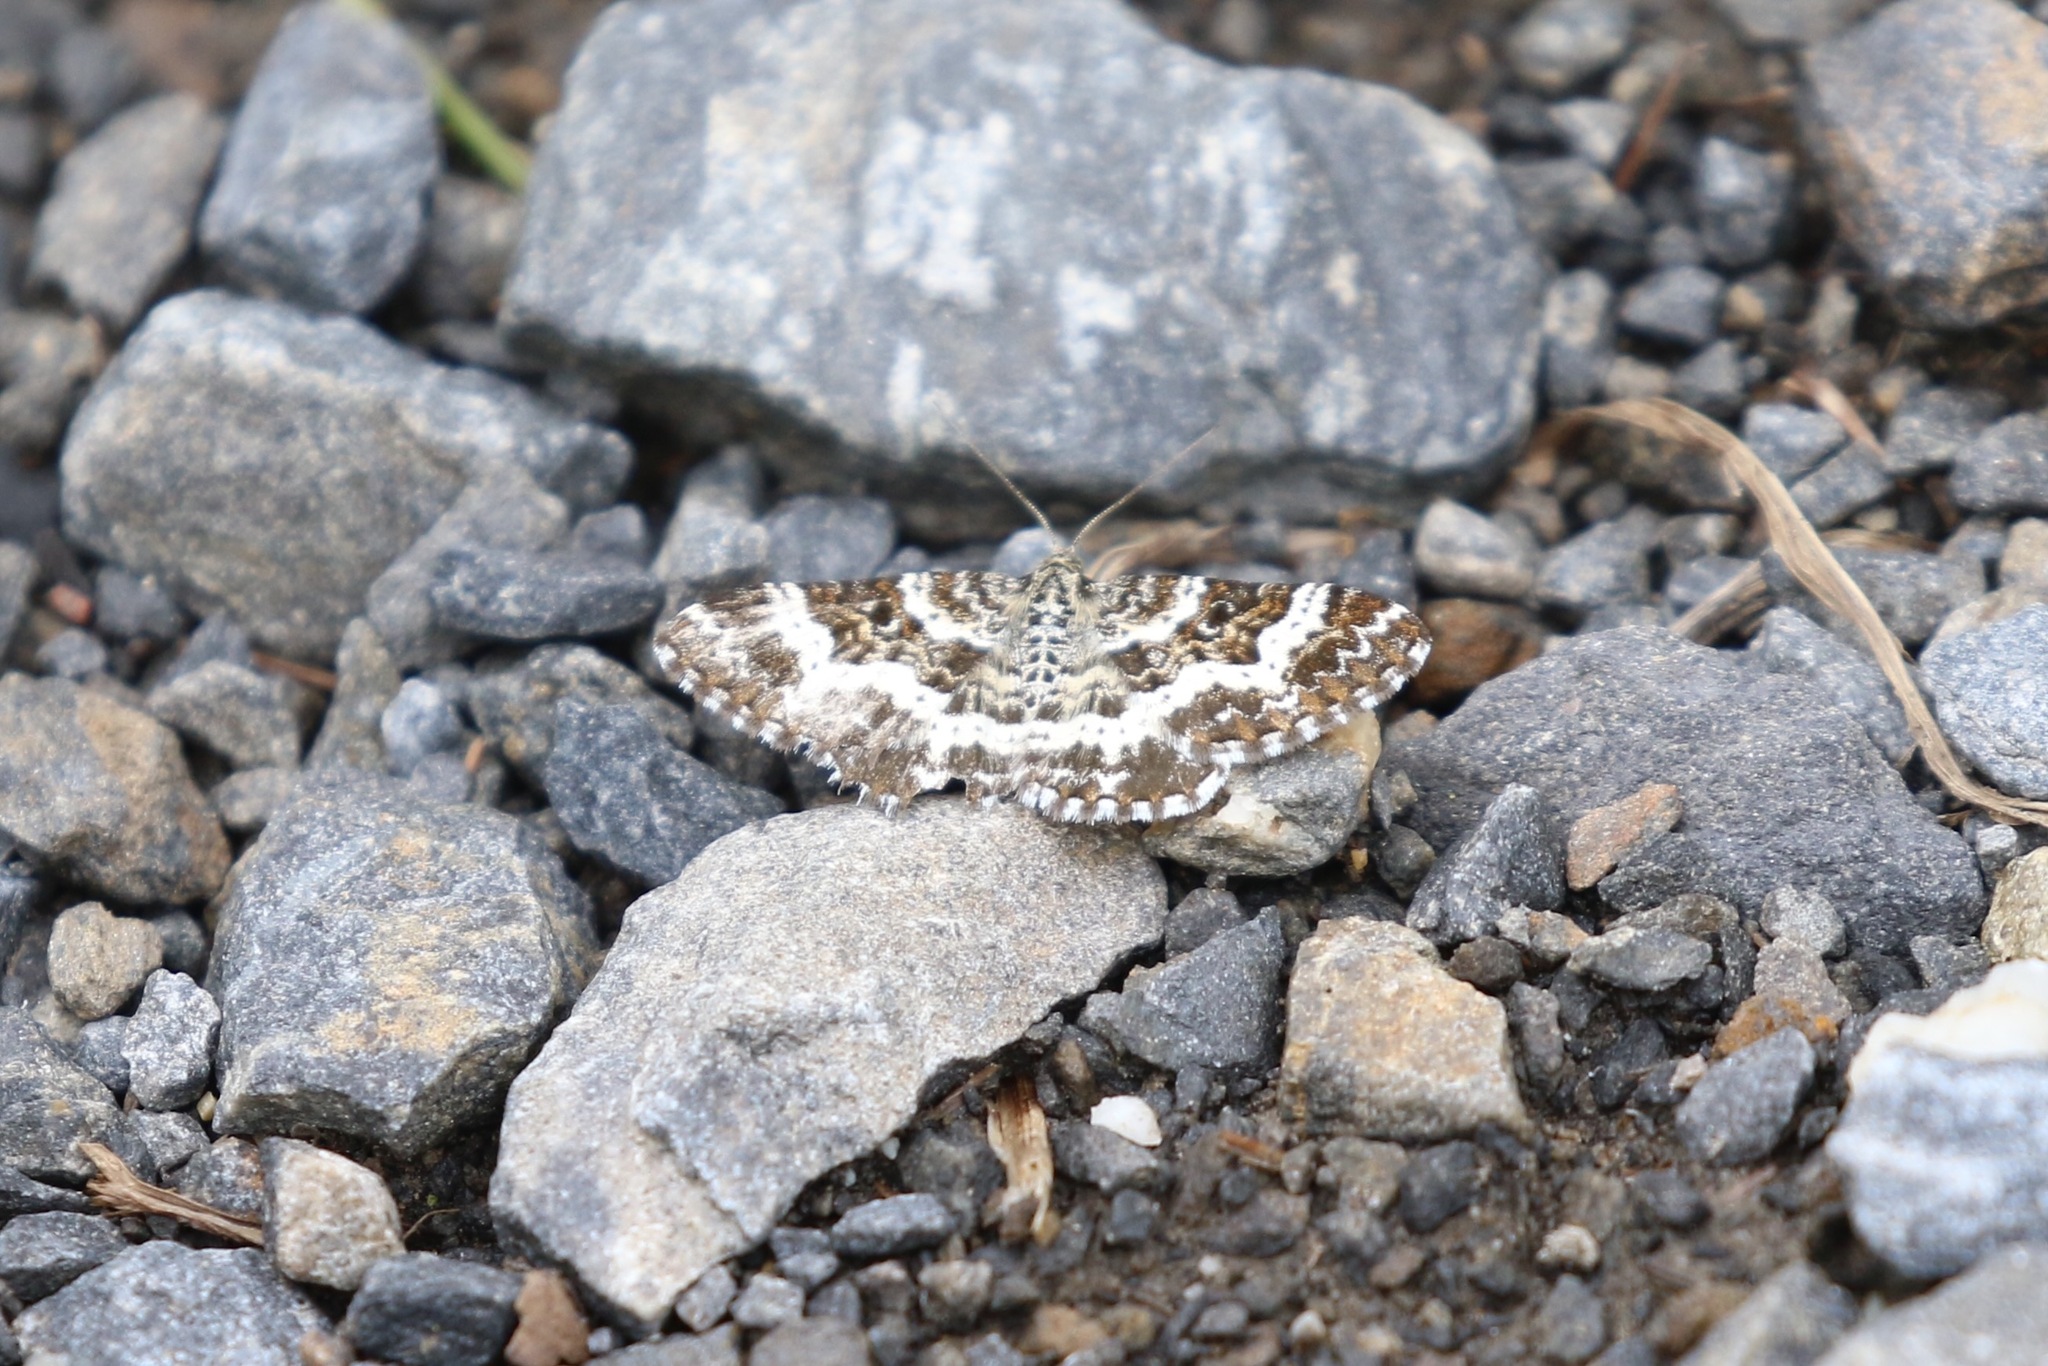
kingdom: Animalia
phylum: Arthropoda
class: Insecta
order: Lepidoptera
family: Geometridae
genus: Epirrhoe
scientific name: Epirrhoe tristata
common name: Small argent & sable
